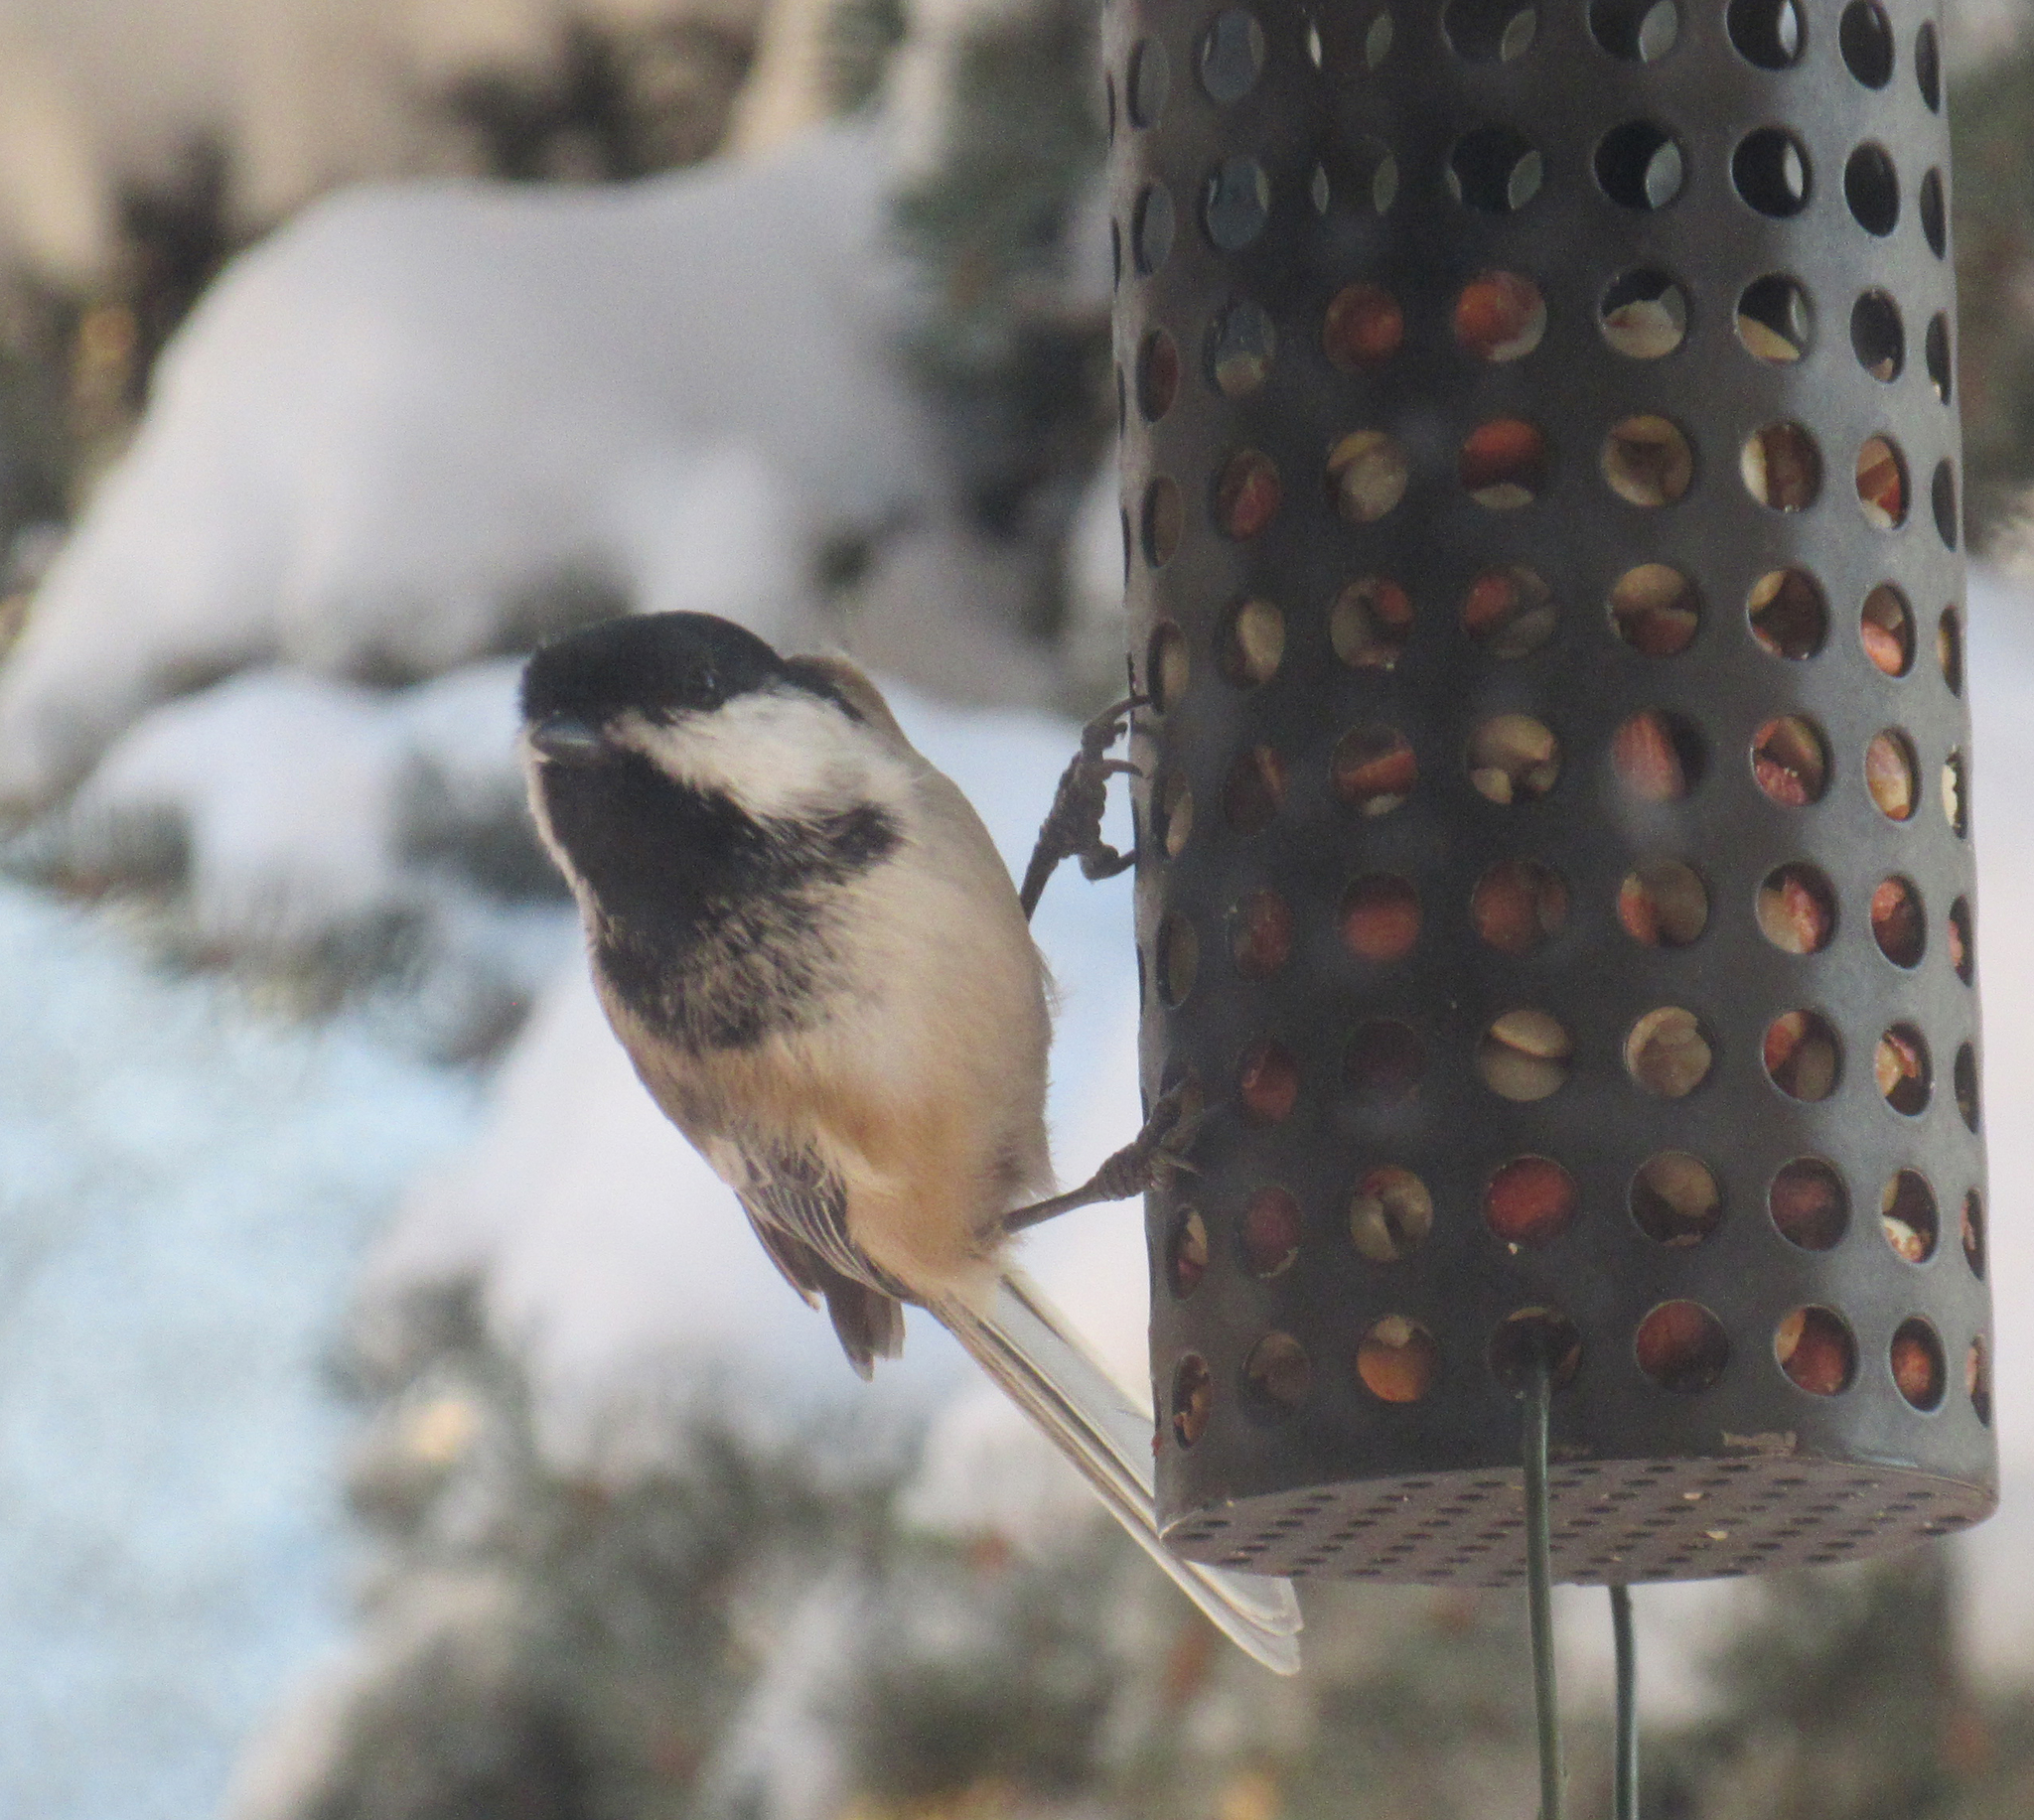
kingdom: Animalia
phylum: Chordata
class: Aves
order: Passeriformes
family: Paridae
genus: Poecile
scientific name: Poecile atricapillus
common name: Black-capped chickadee
